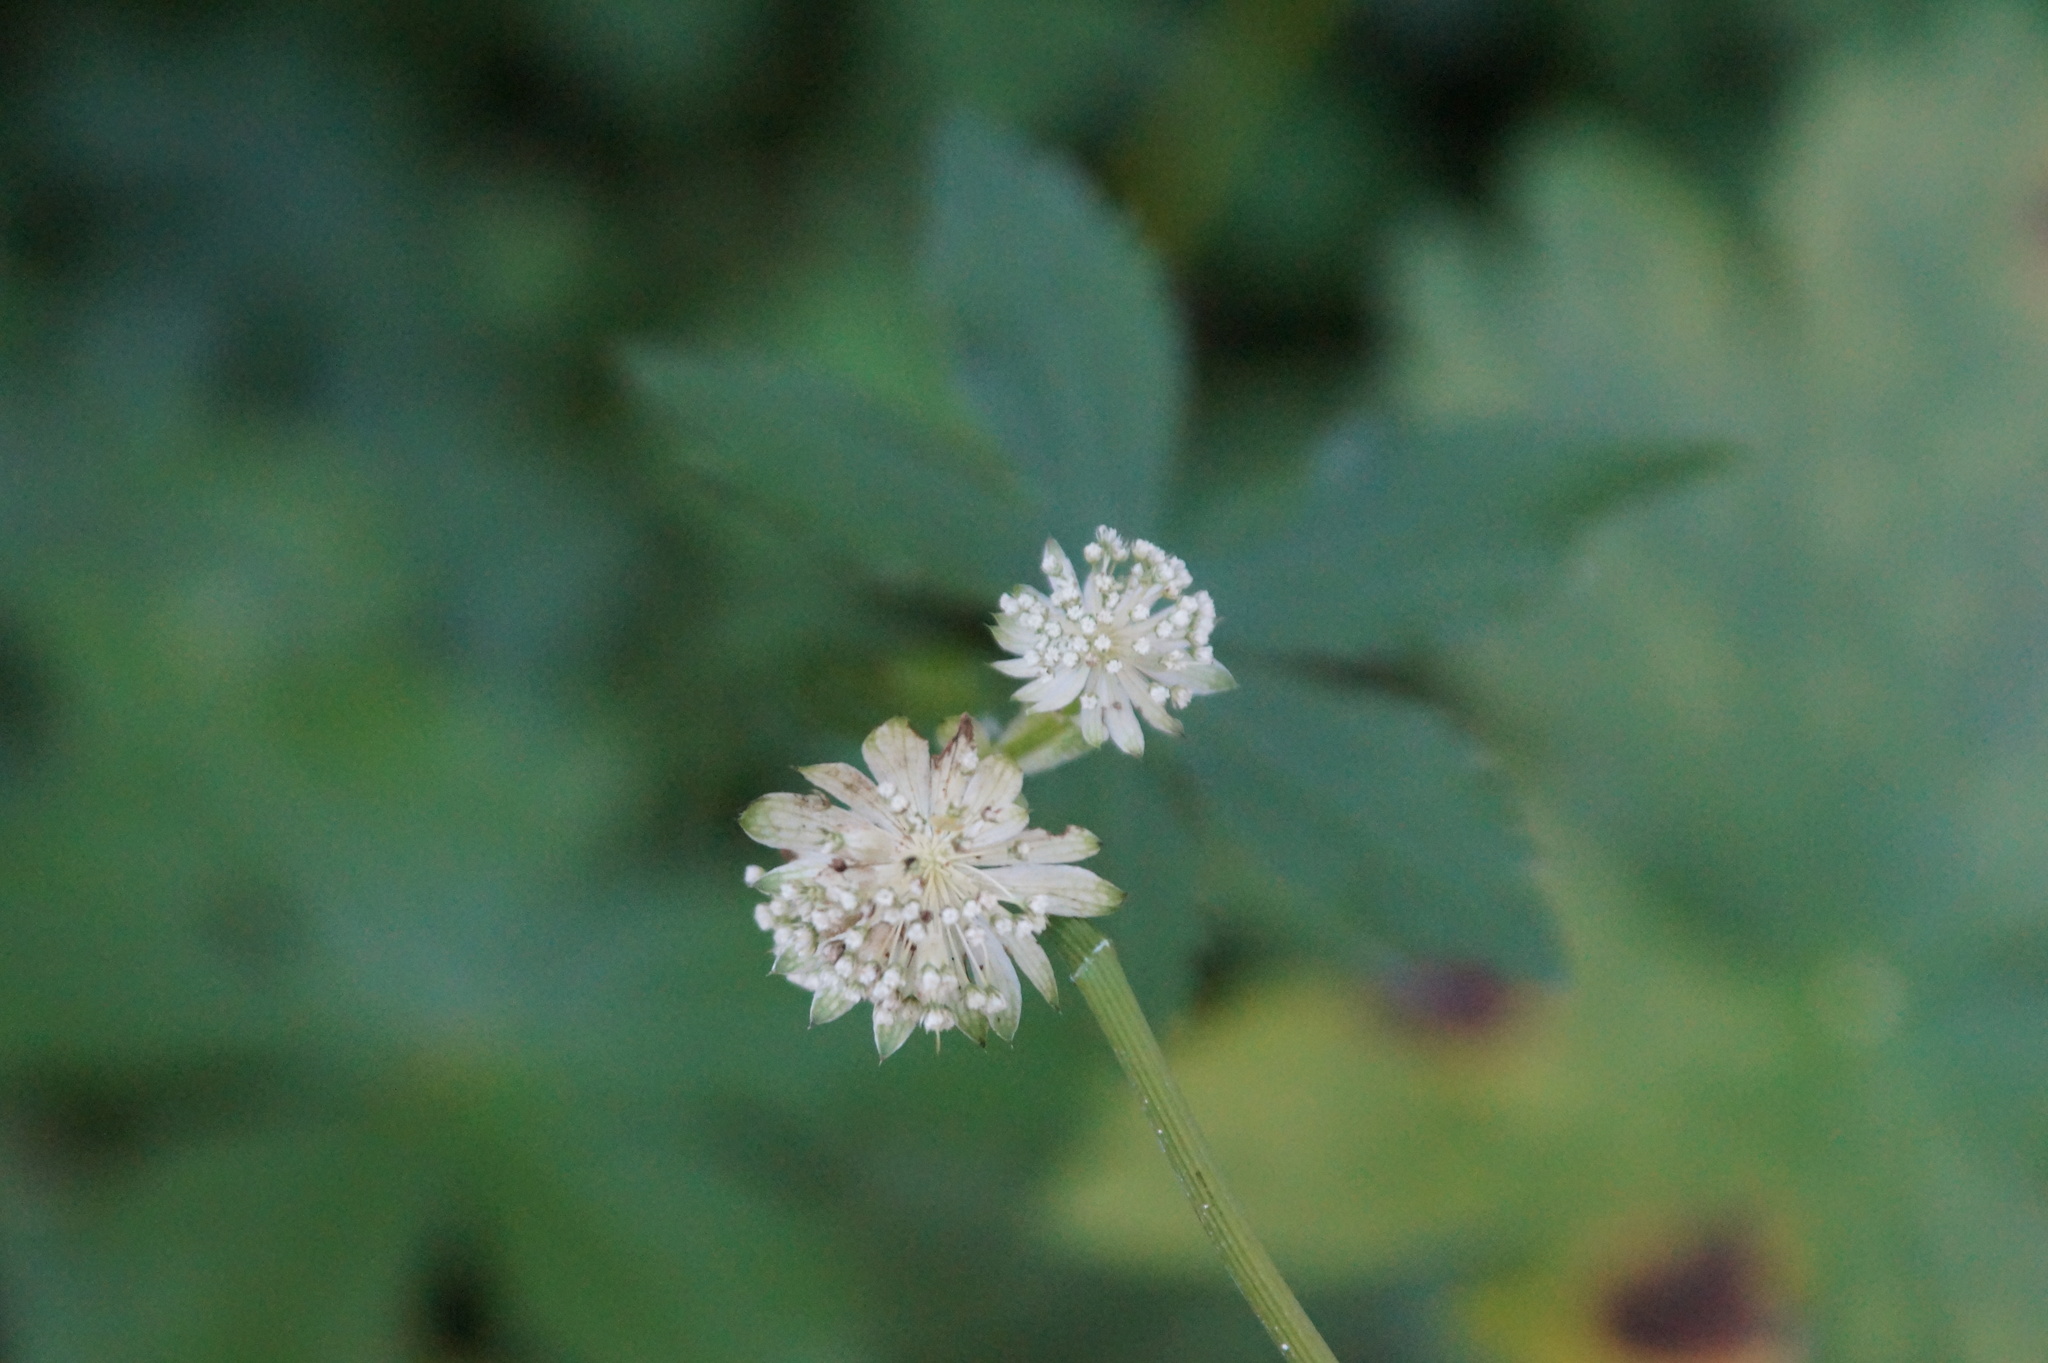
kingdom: Plantae
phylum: Tracheophyta
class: Magnoliopsida
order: Apiales
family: Apiaceae
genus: Astrantia
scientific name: Astrantia major
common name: Greater masterwort
